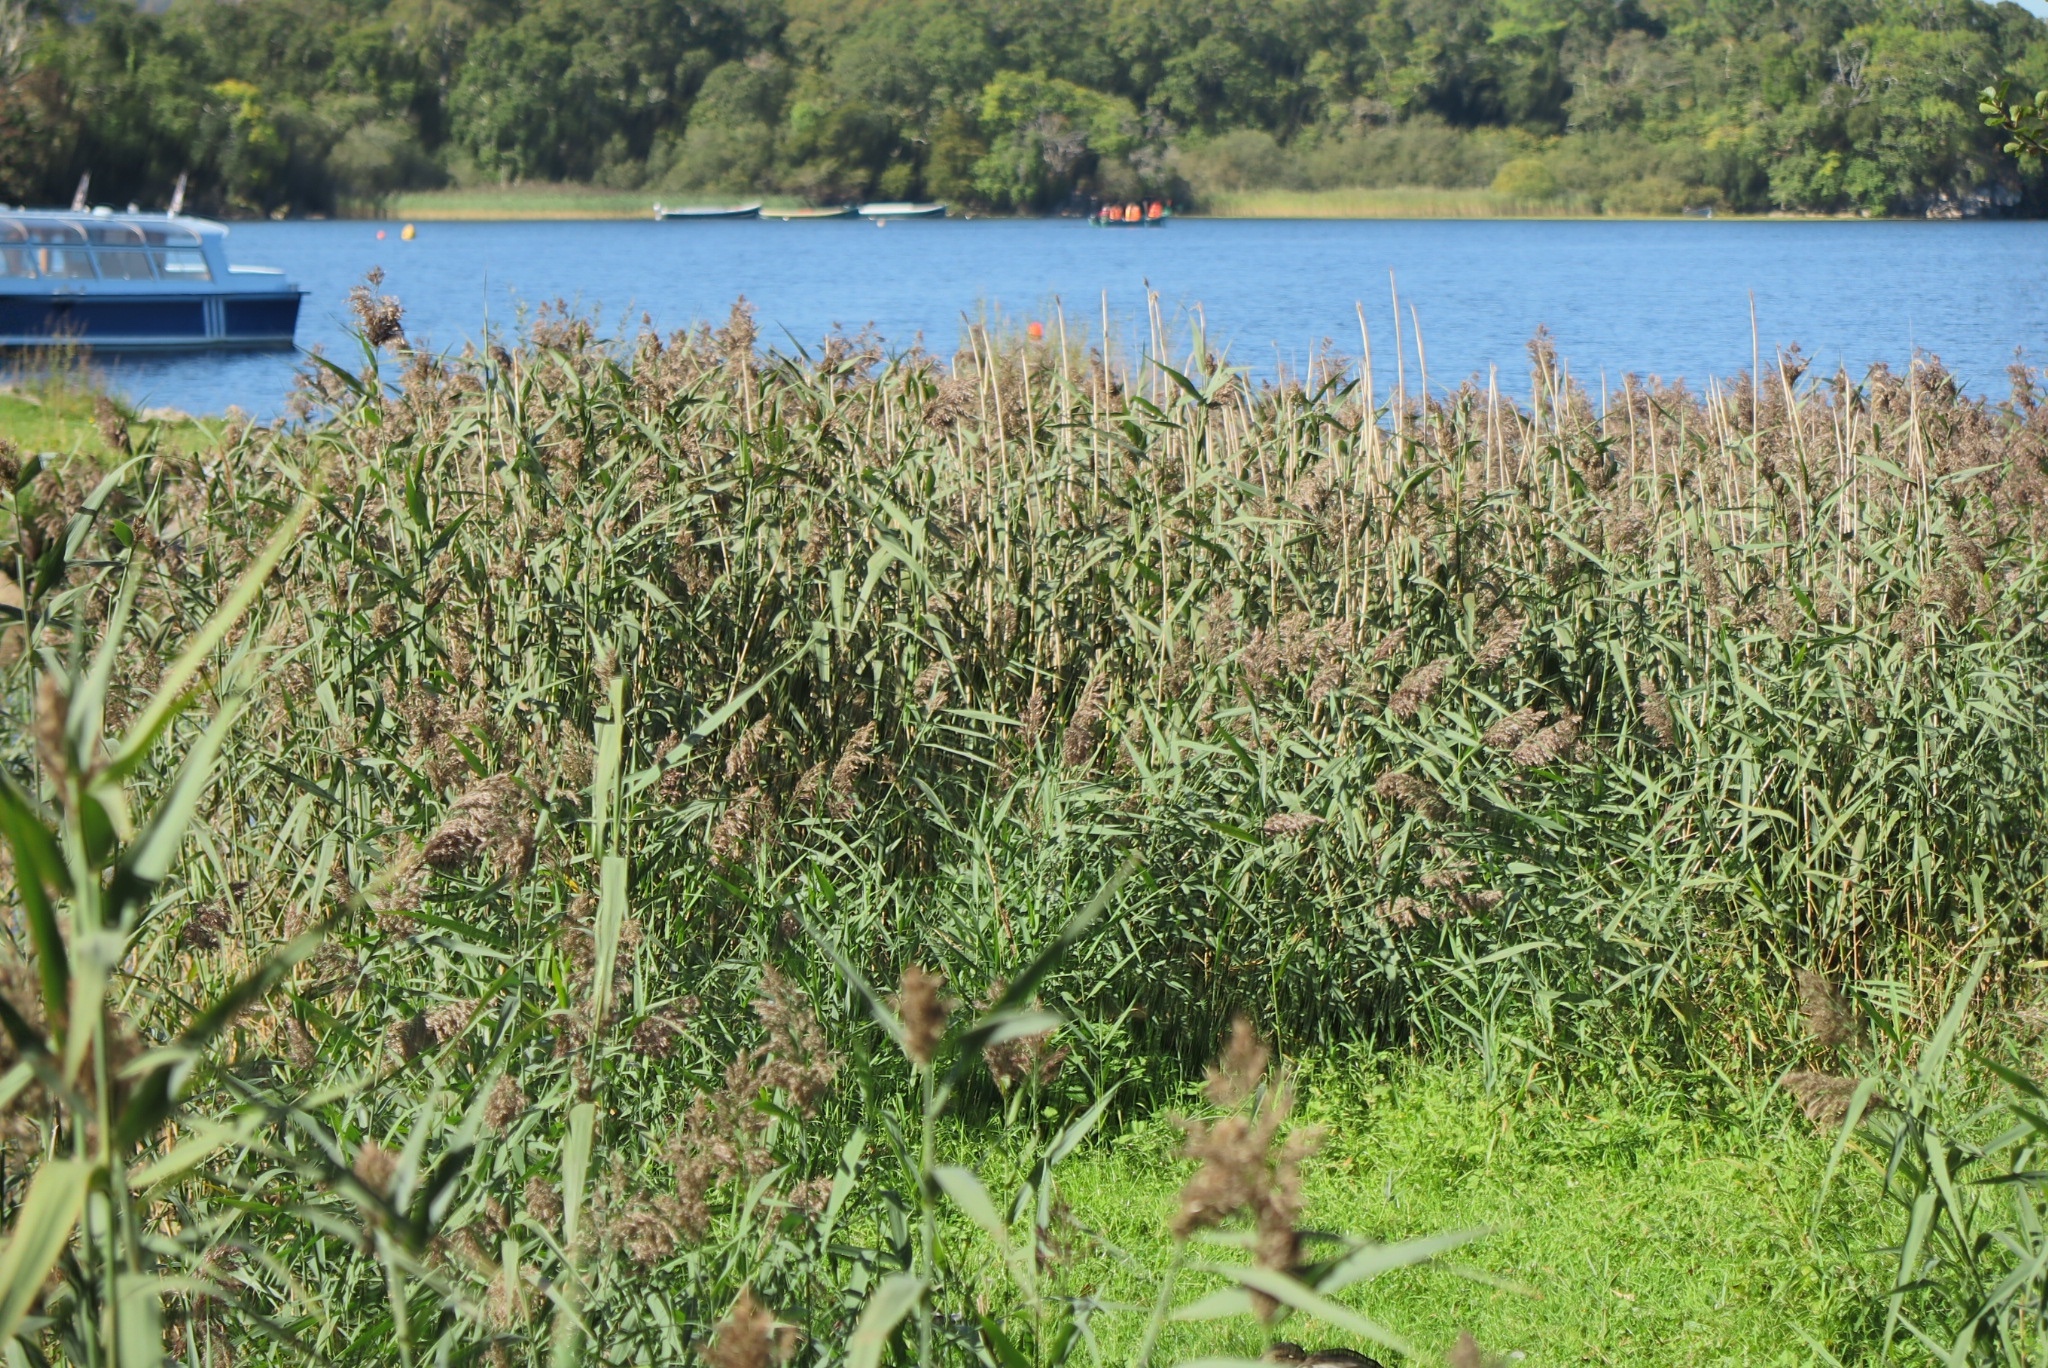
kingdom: Plantae
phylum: Tracheophyta
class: Liliopsida
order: Poales
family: Poaceae
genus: Phragmites
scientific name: Phragmites australis
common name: Common reed
